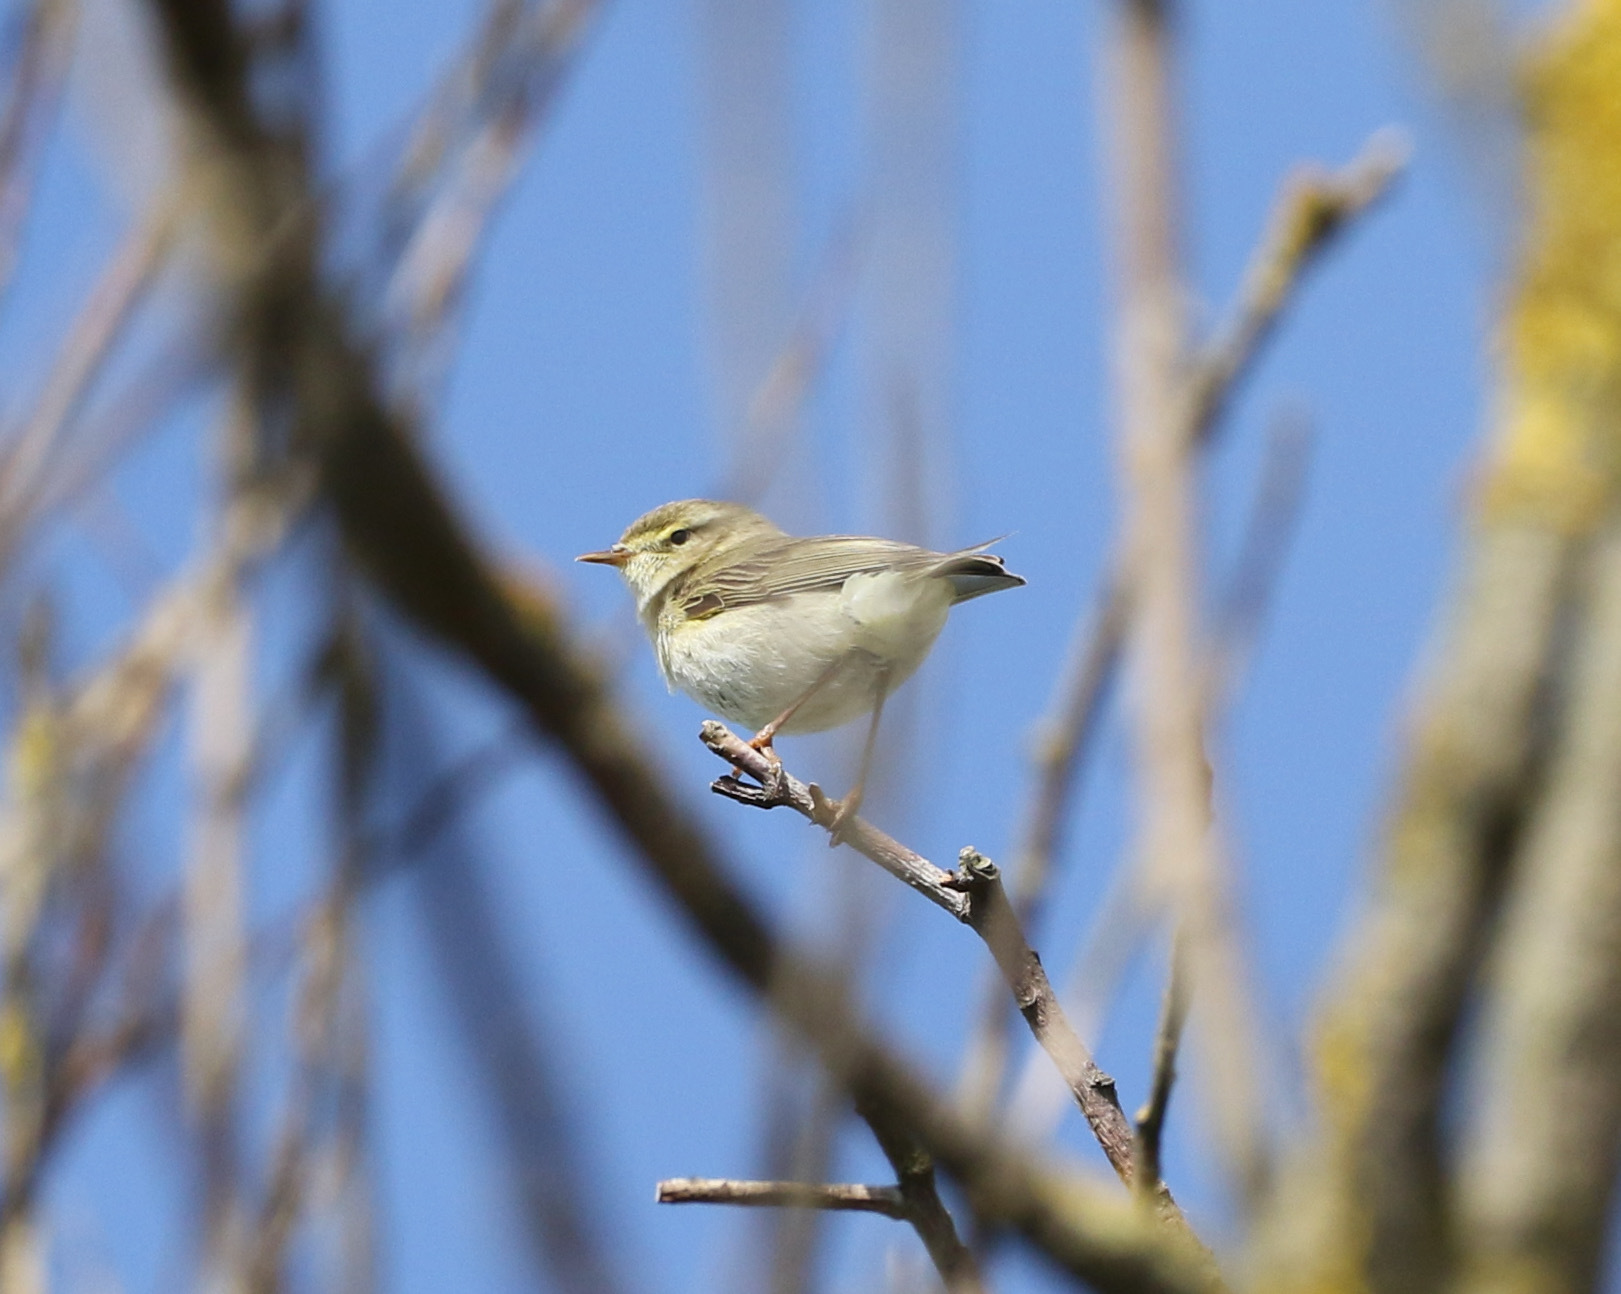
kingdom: Animalia
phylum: Chordata
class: Aves
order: Passeriformes
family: Phylloscopidae
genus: Phylloscopus
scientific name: Phylloscopus trochilus
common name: Willow warbler
